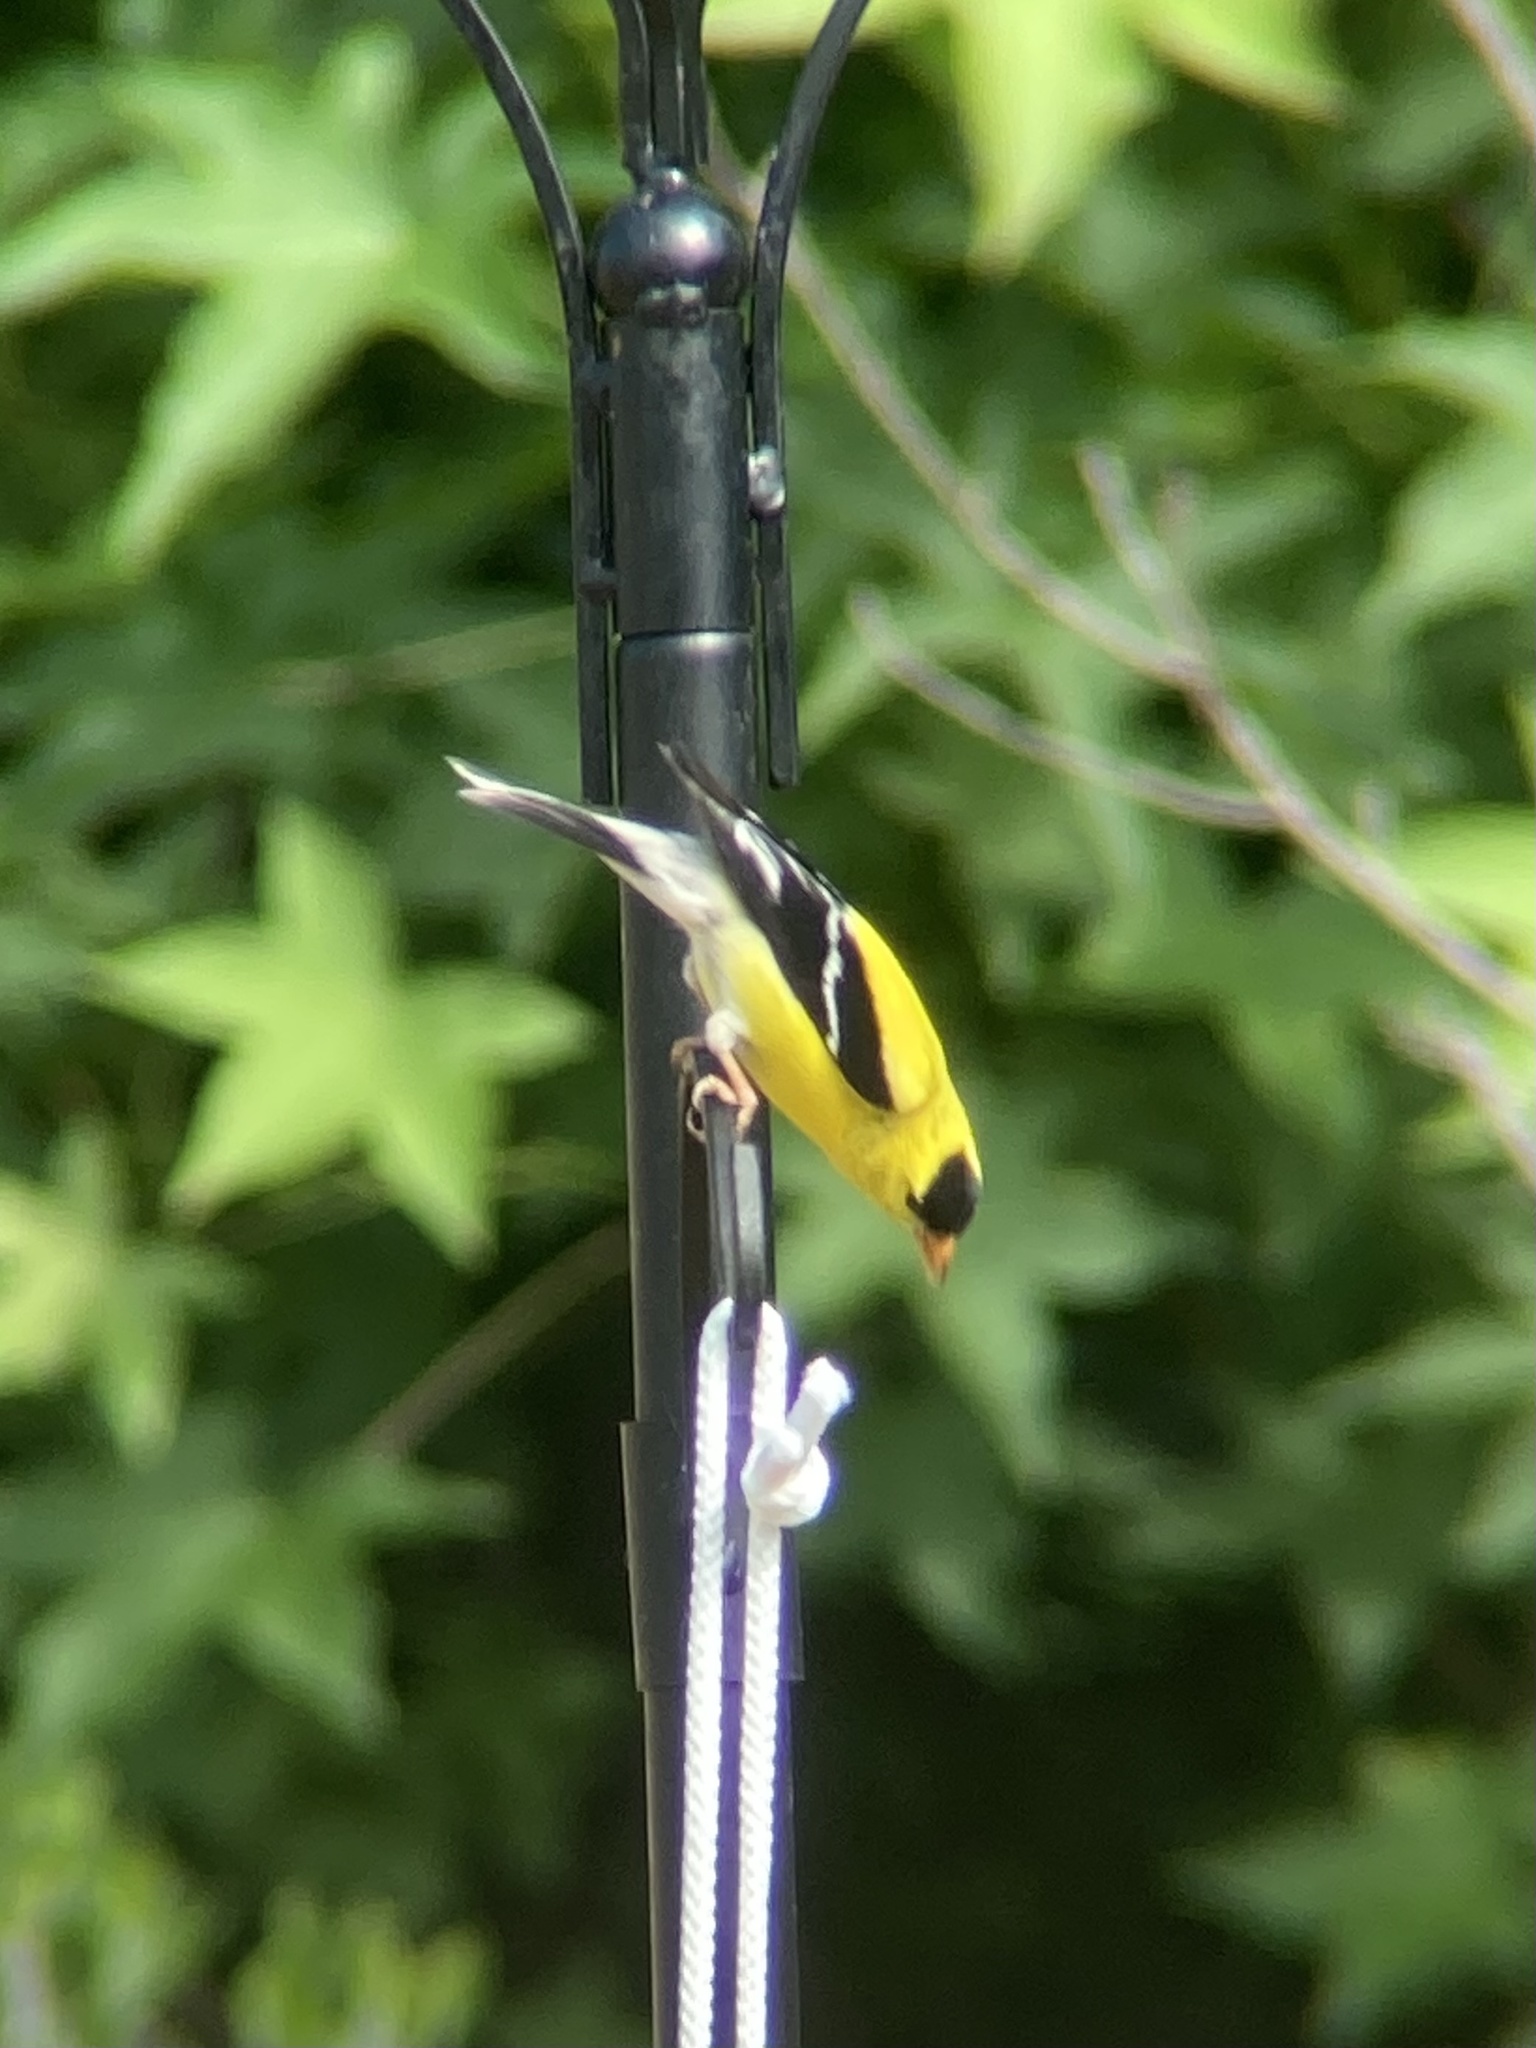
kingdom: Animalia
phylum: Chordata
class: Aves
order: Passeriformes
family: Fringillidae
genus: Spinus
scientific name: Spinus tristis
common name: American goldfinch
